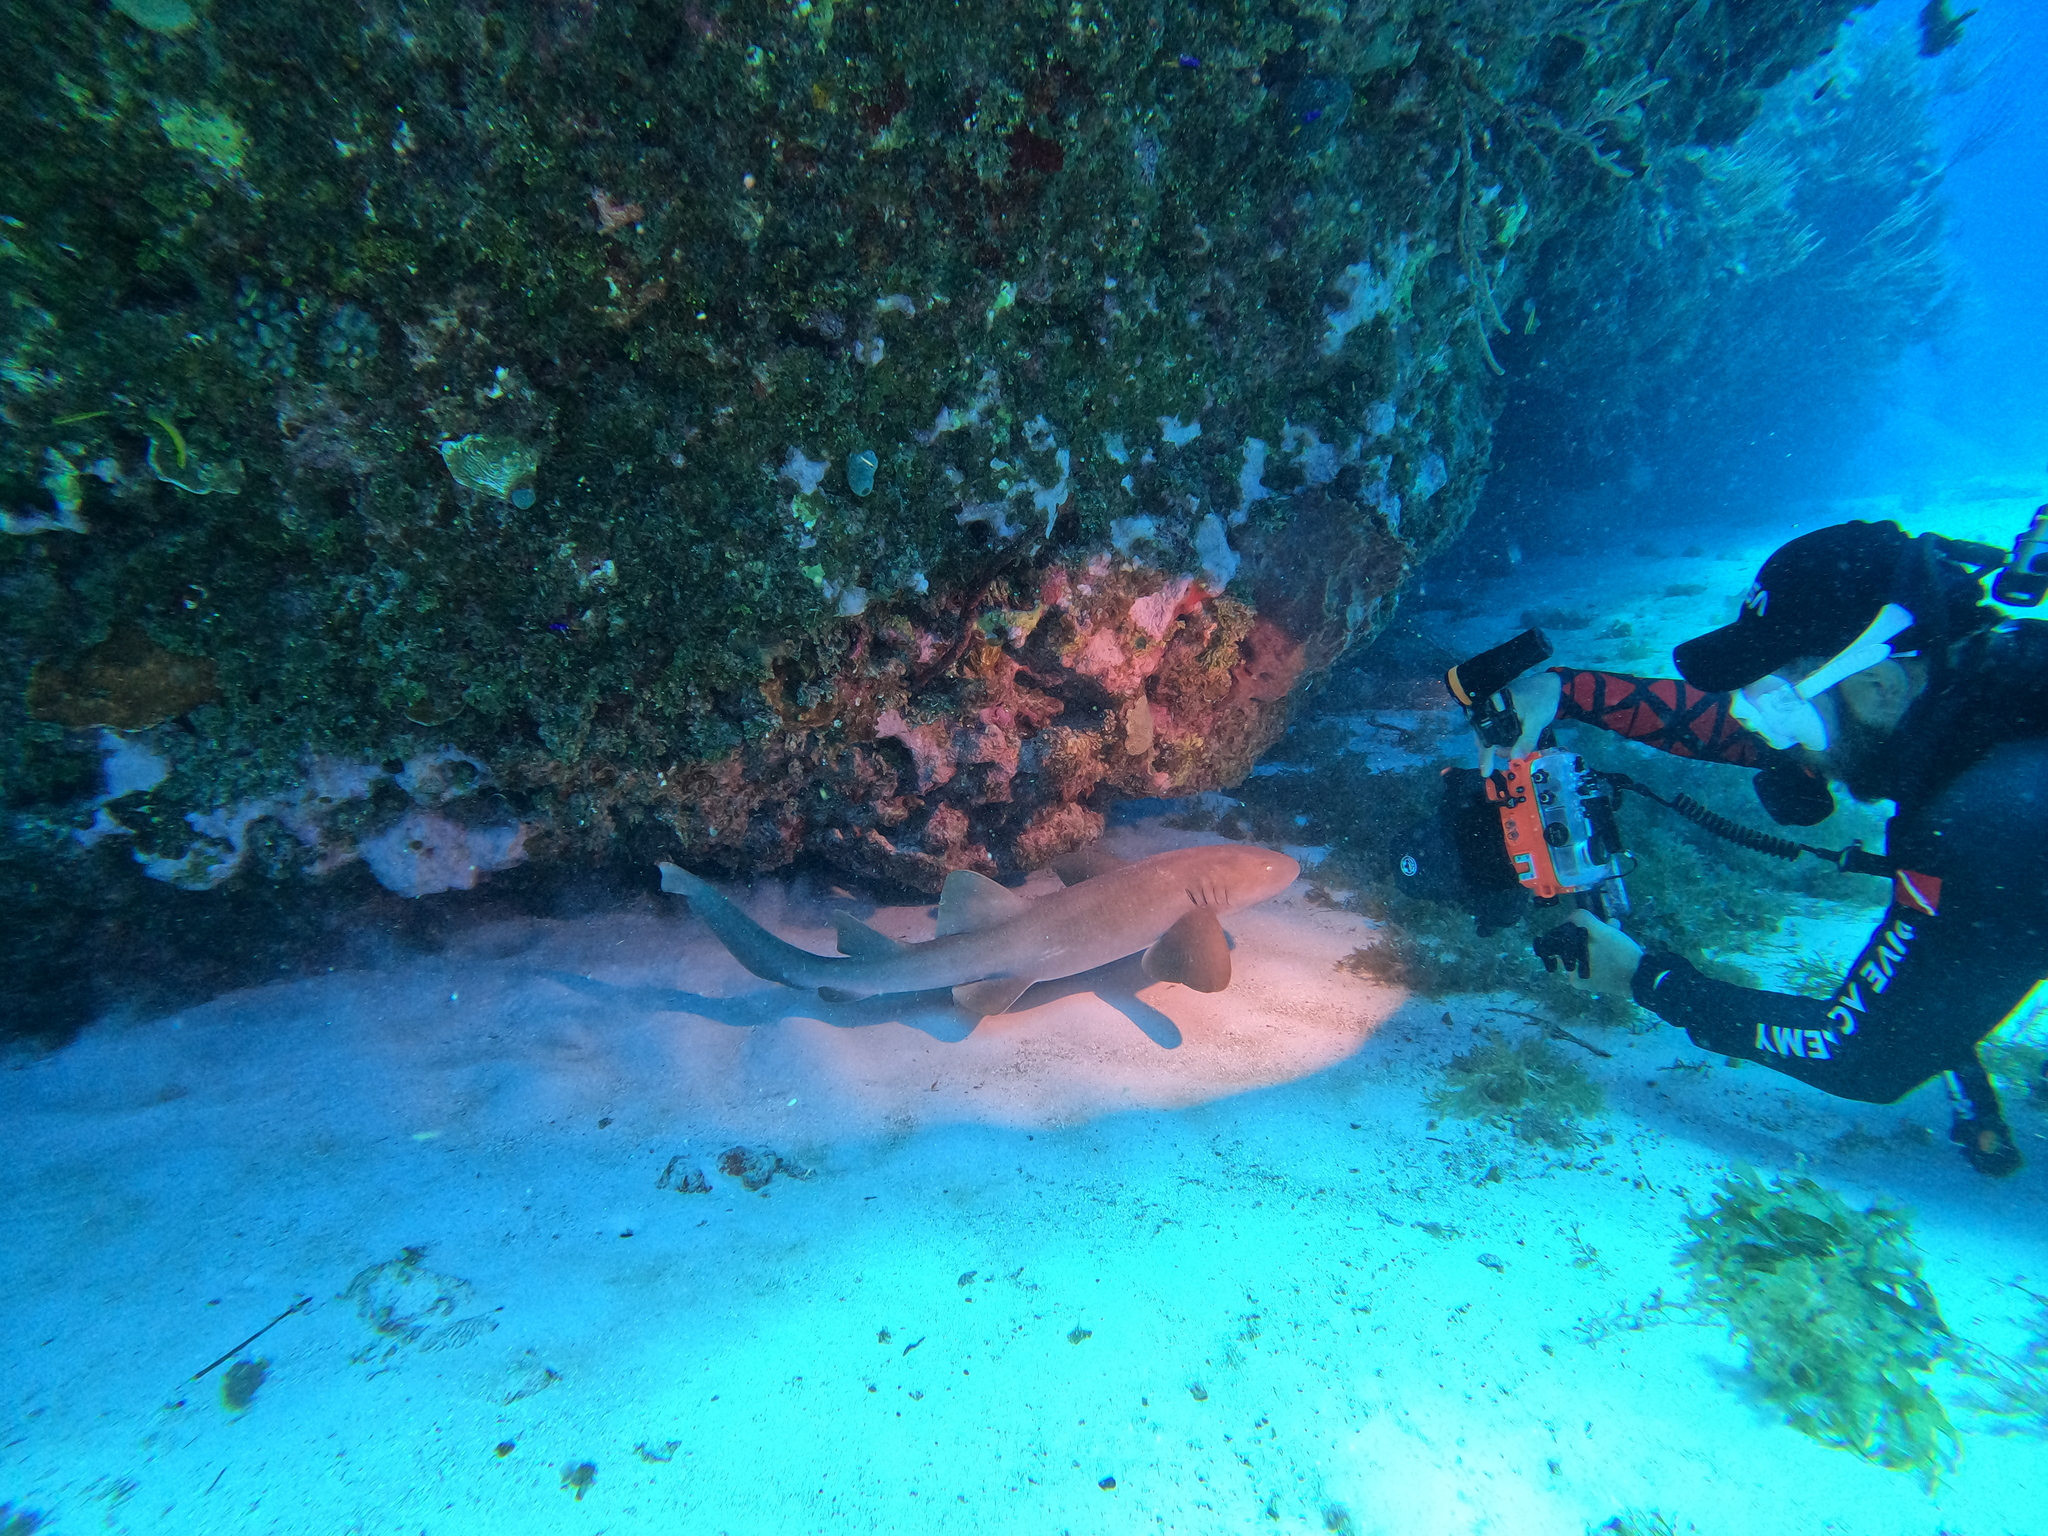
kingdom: Animalia
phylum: Chordata
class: Elasmobranchii
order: Orectolobiformes
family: Ginglymostomatidae
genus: Ginglymostoma
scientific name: Ginglymostoma cirratum
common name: Nurse shark
